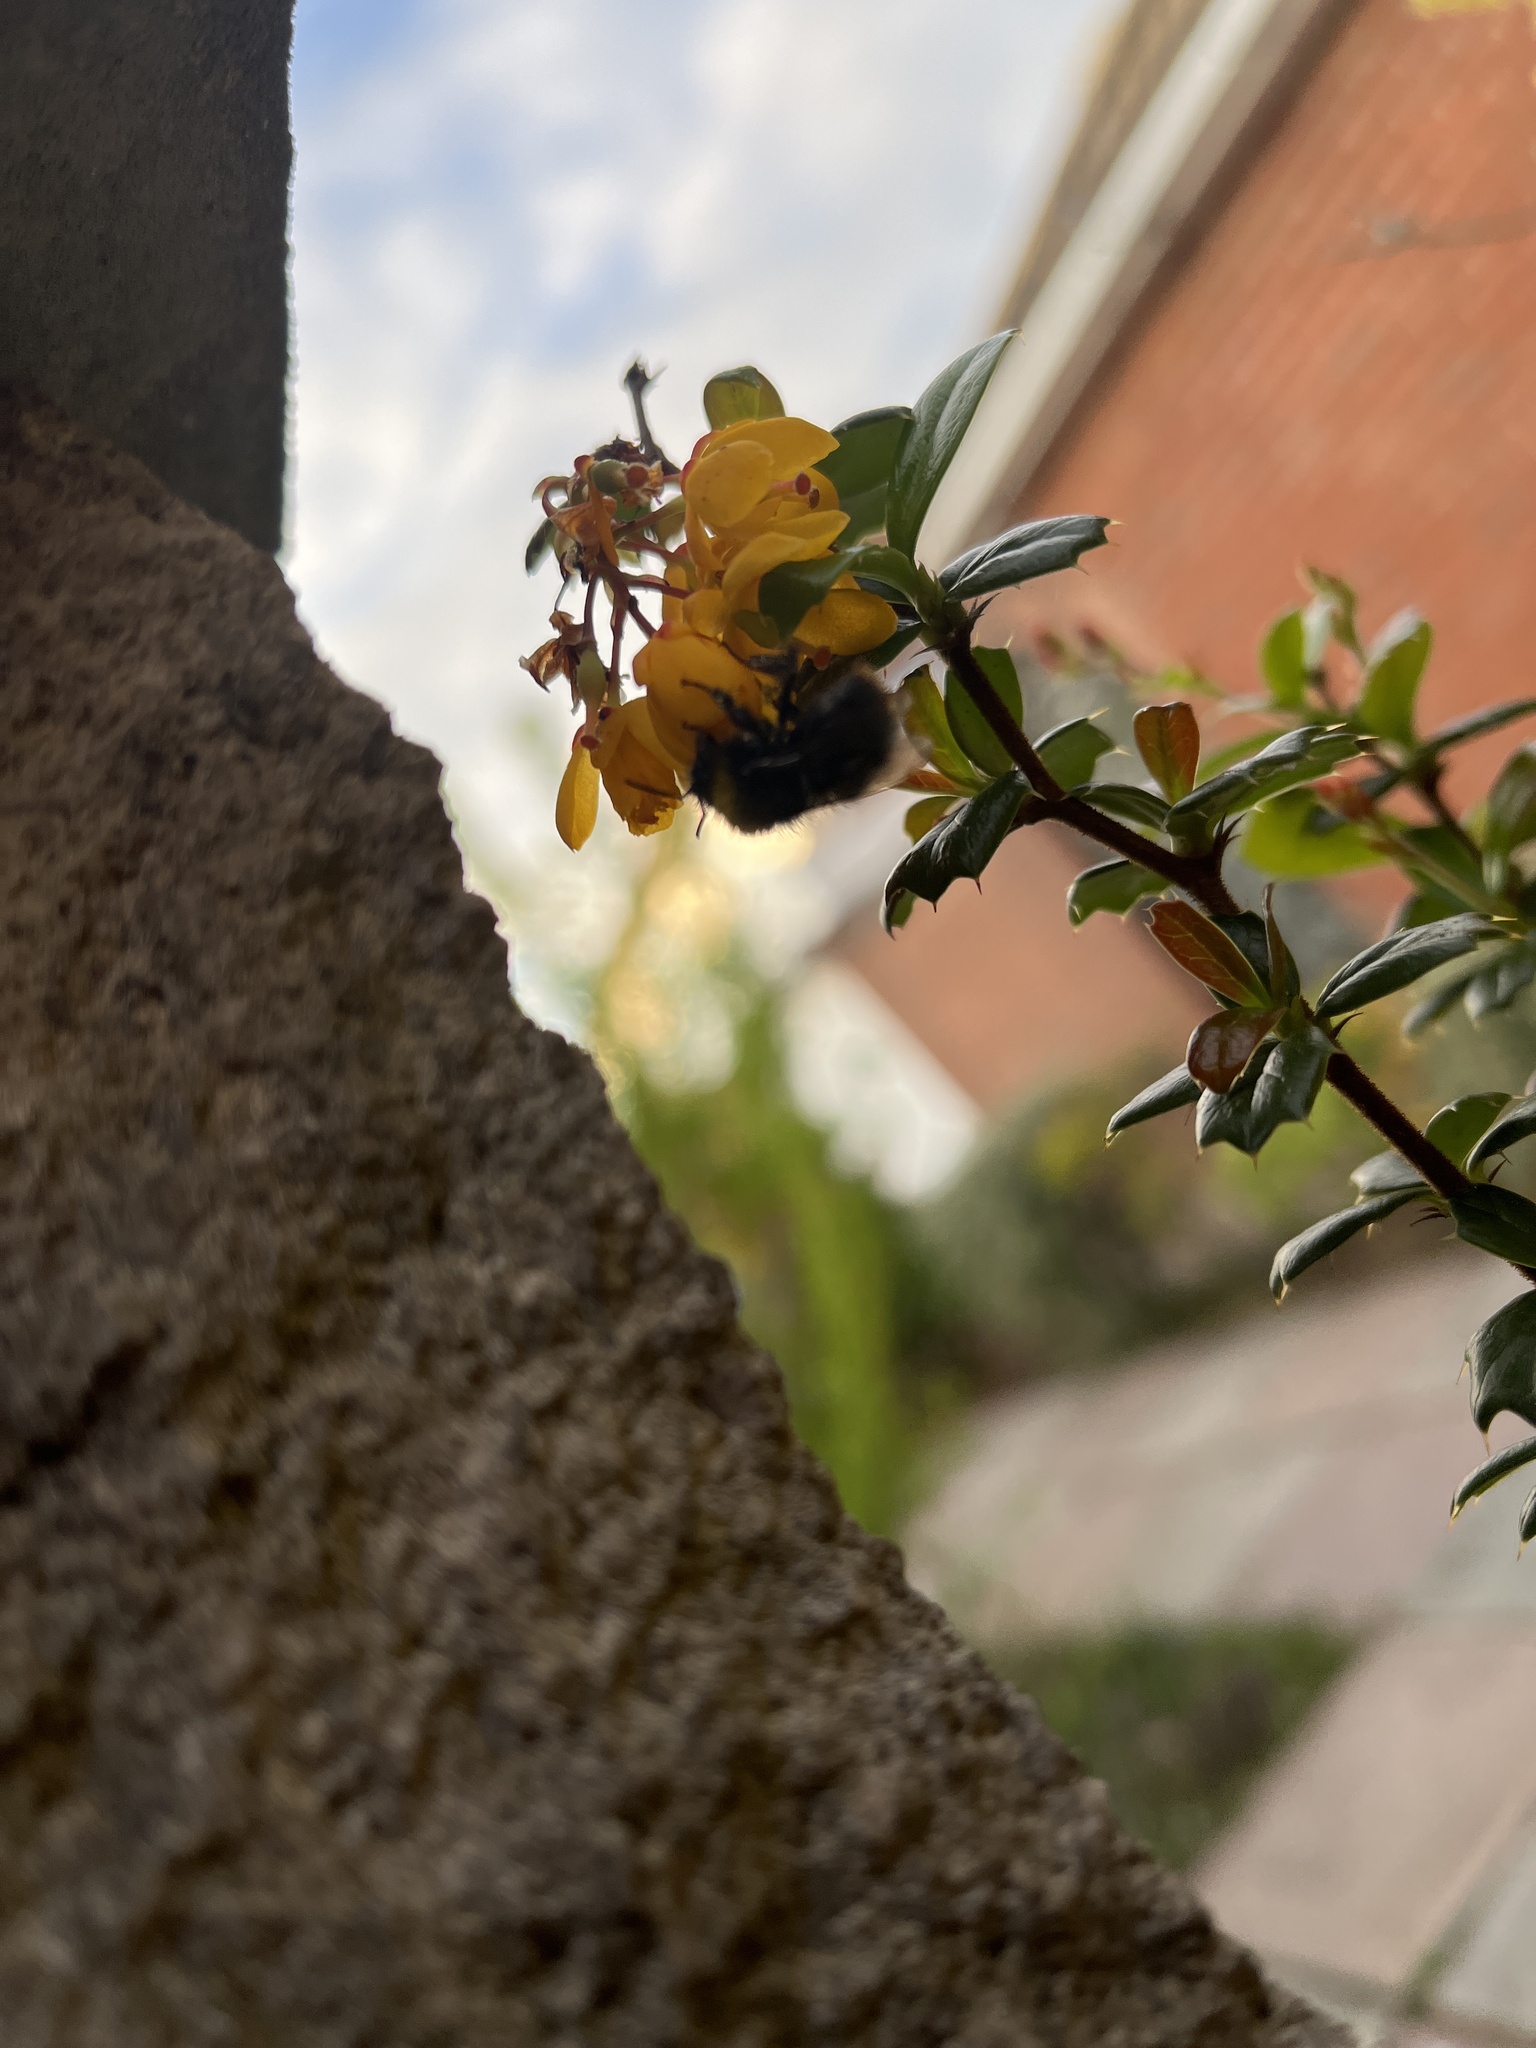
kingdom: Animalia
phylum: Arthropoda
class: Insecta
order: Hymenoptera
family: Apidae
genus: Bombus
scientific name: Bombus pratorum
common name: Early humble-bee
